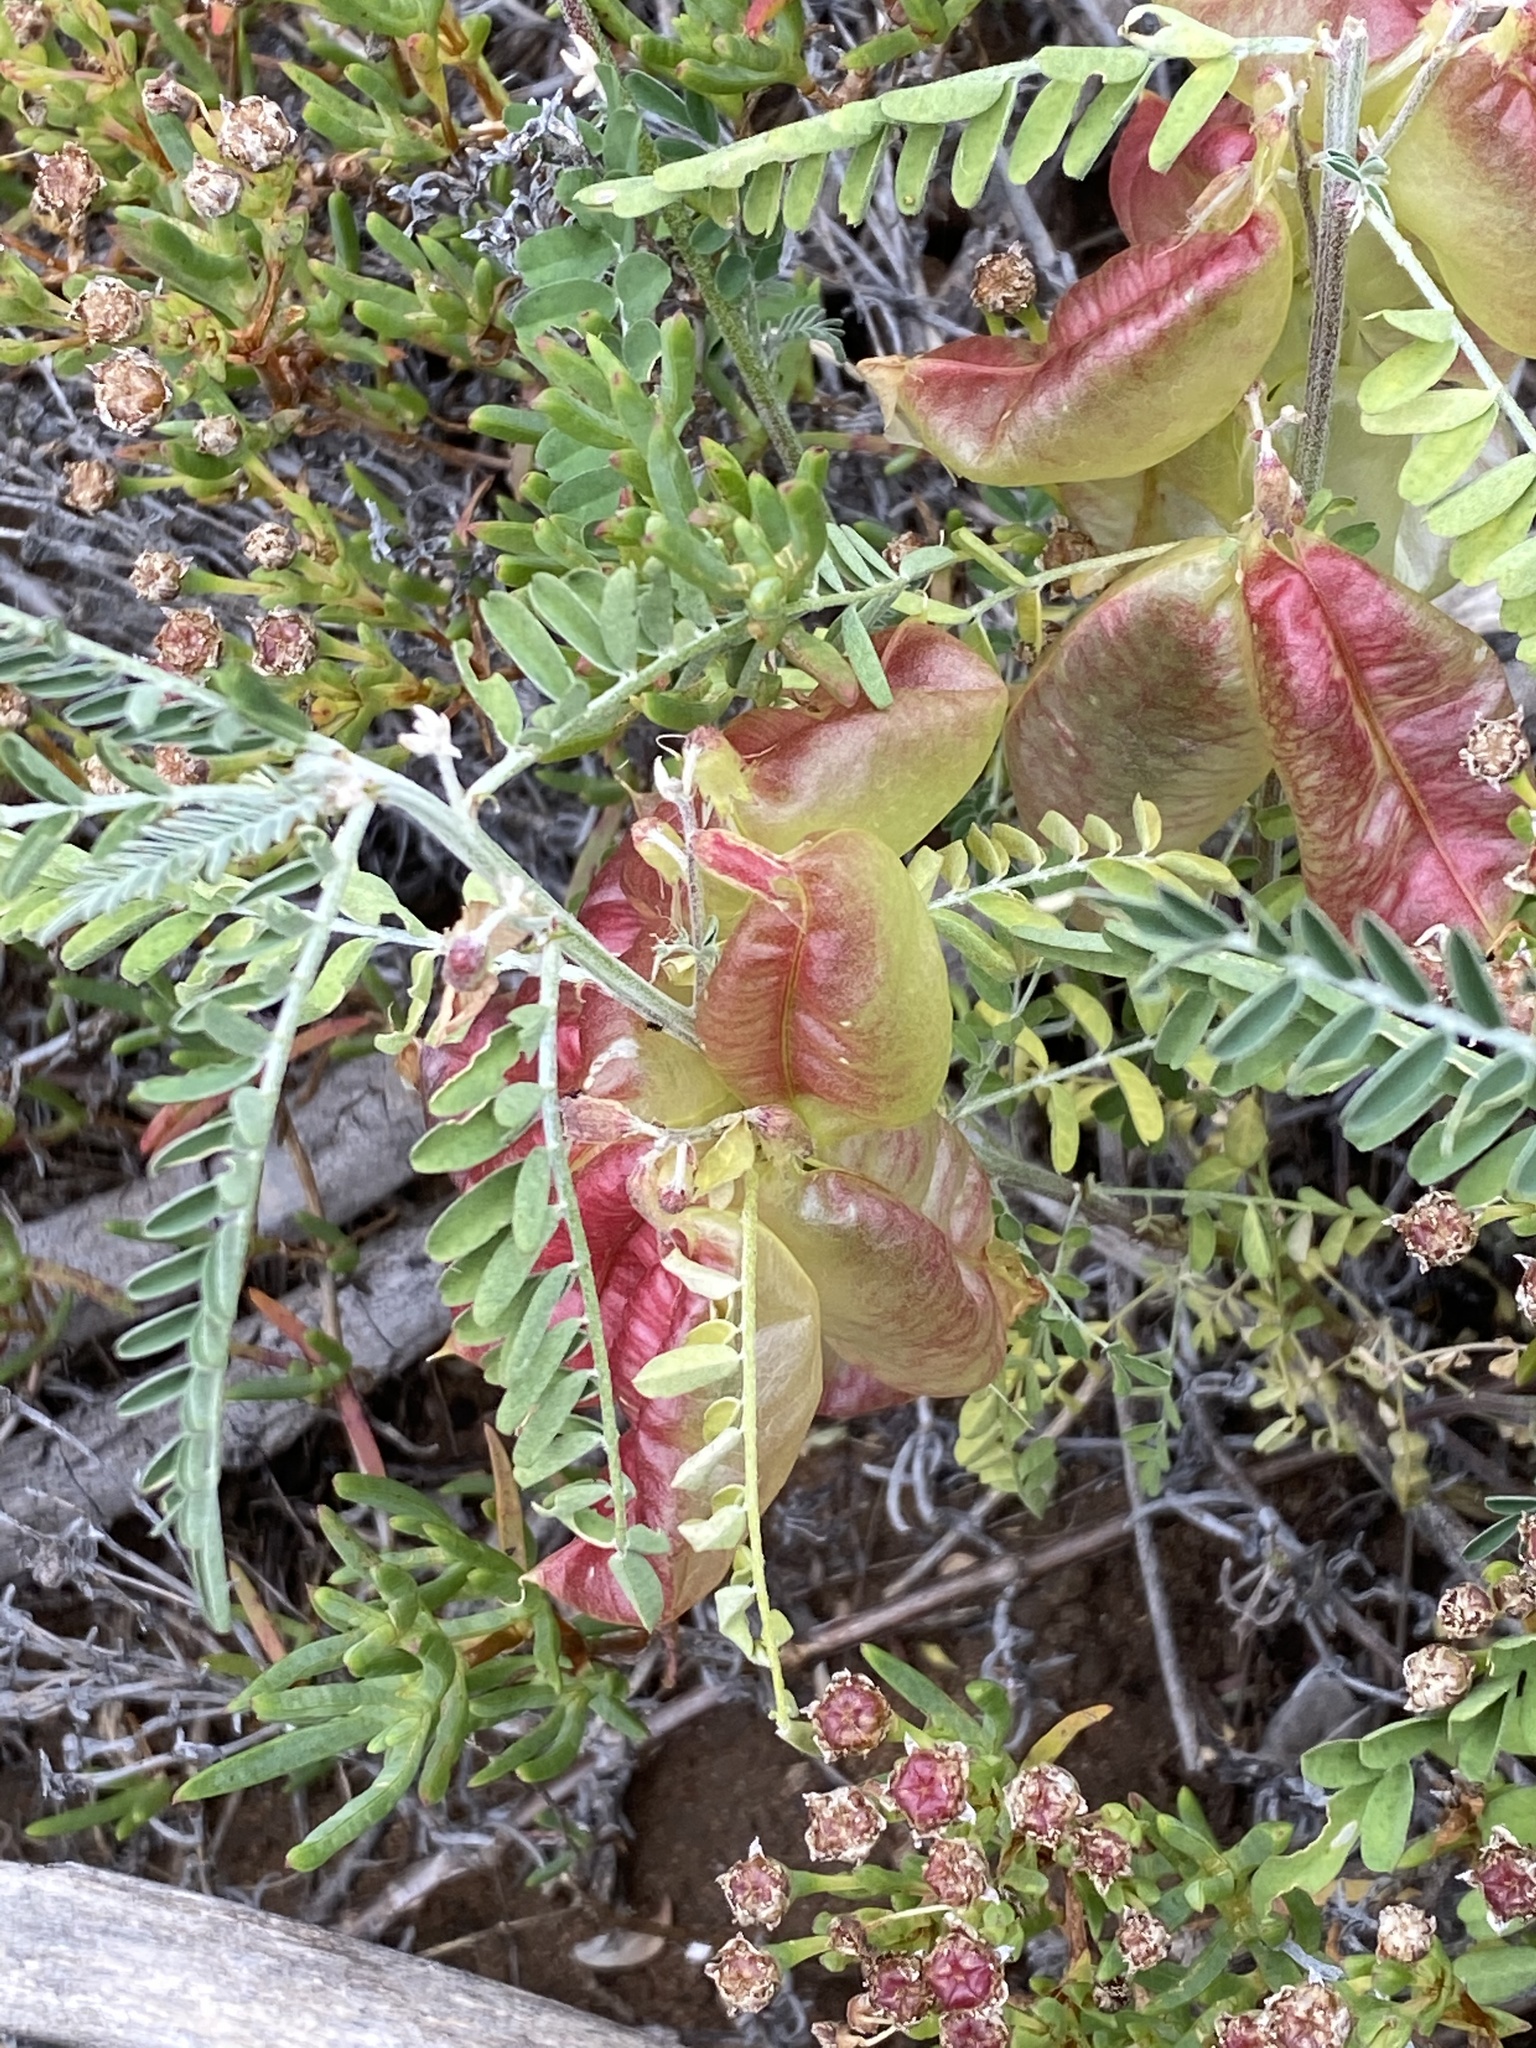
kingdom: Plantae
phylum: Tracheophyta
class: Magnoliopsida
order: Fabales
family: Fabaceae
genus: Lessertia
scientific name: Lessertia frutescens
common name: Balloon-pea
